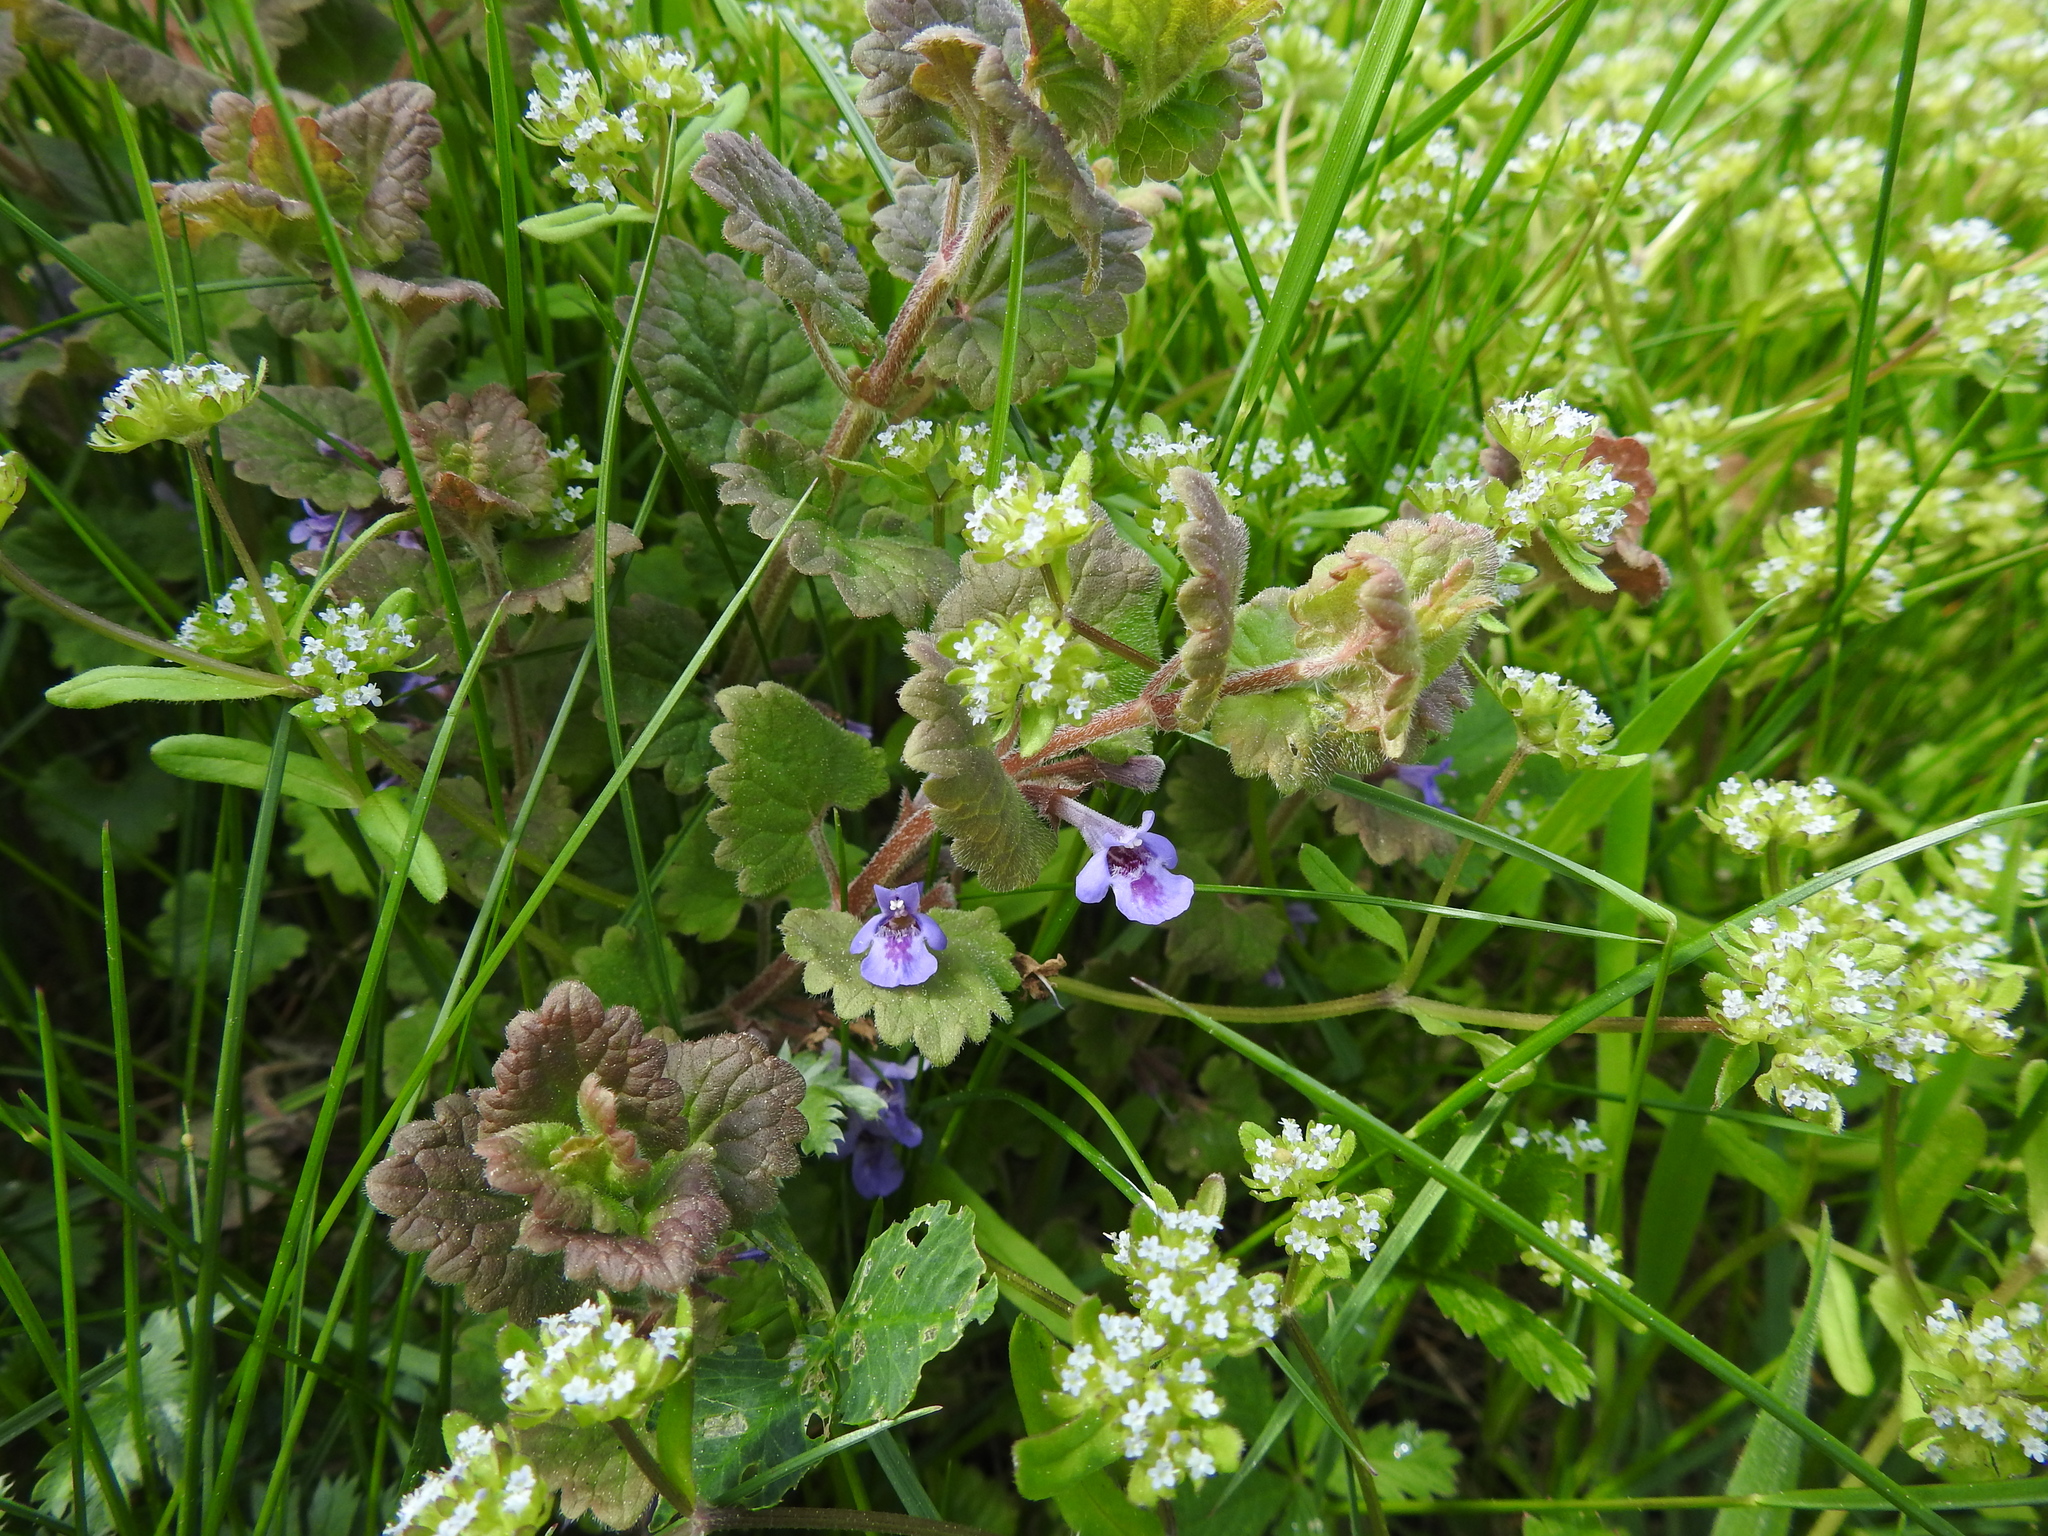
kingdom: Plantae
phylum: Tracheophyta
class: Magnoliopsida
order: Lamiales
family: Lamiaceae
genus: Glechoma
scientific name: Glechoma hederacea
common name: Ground ivy
